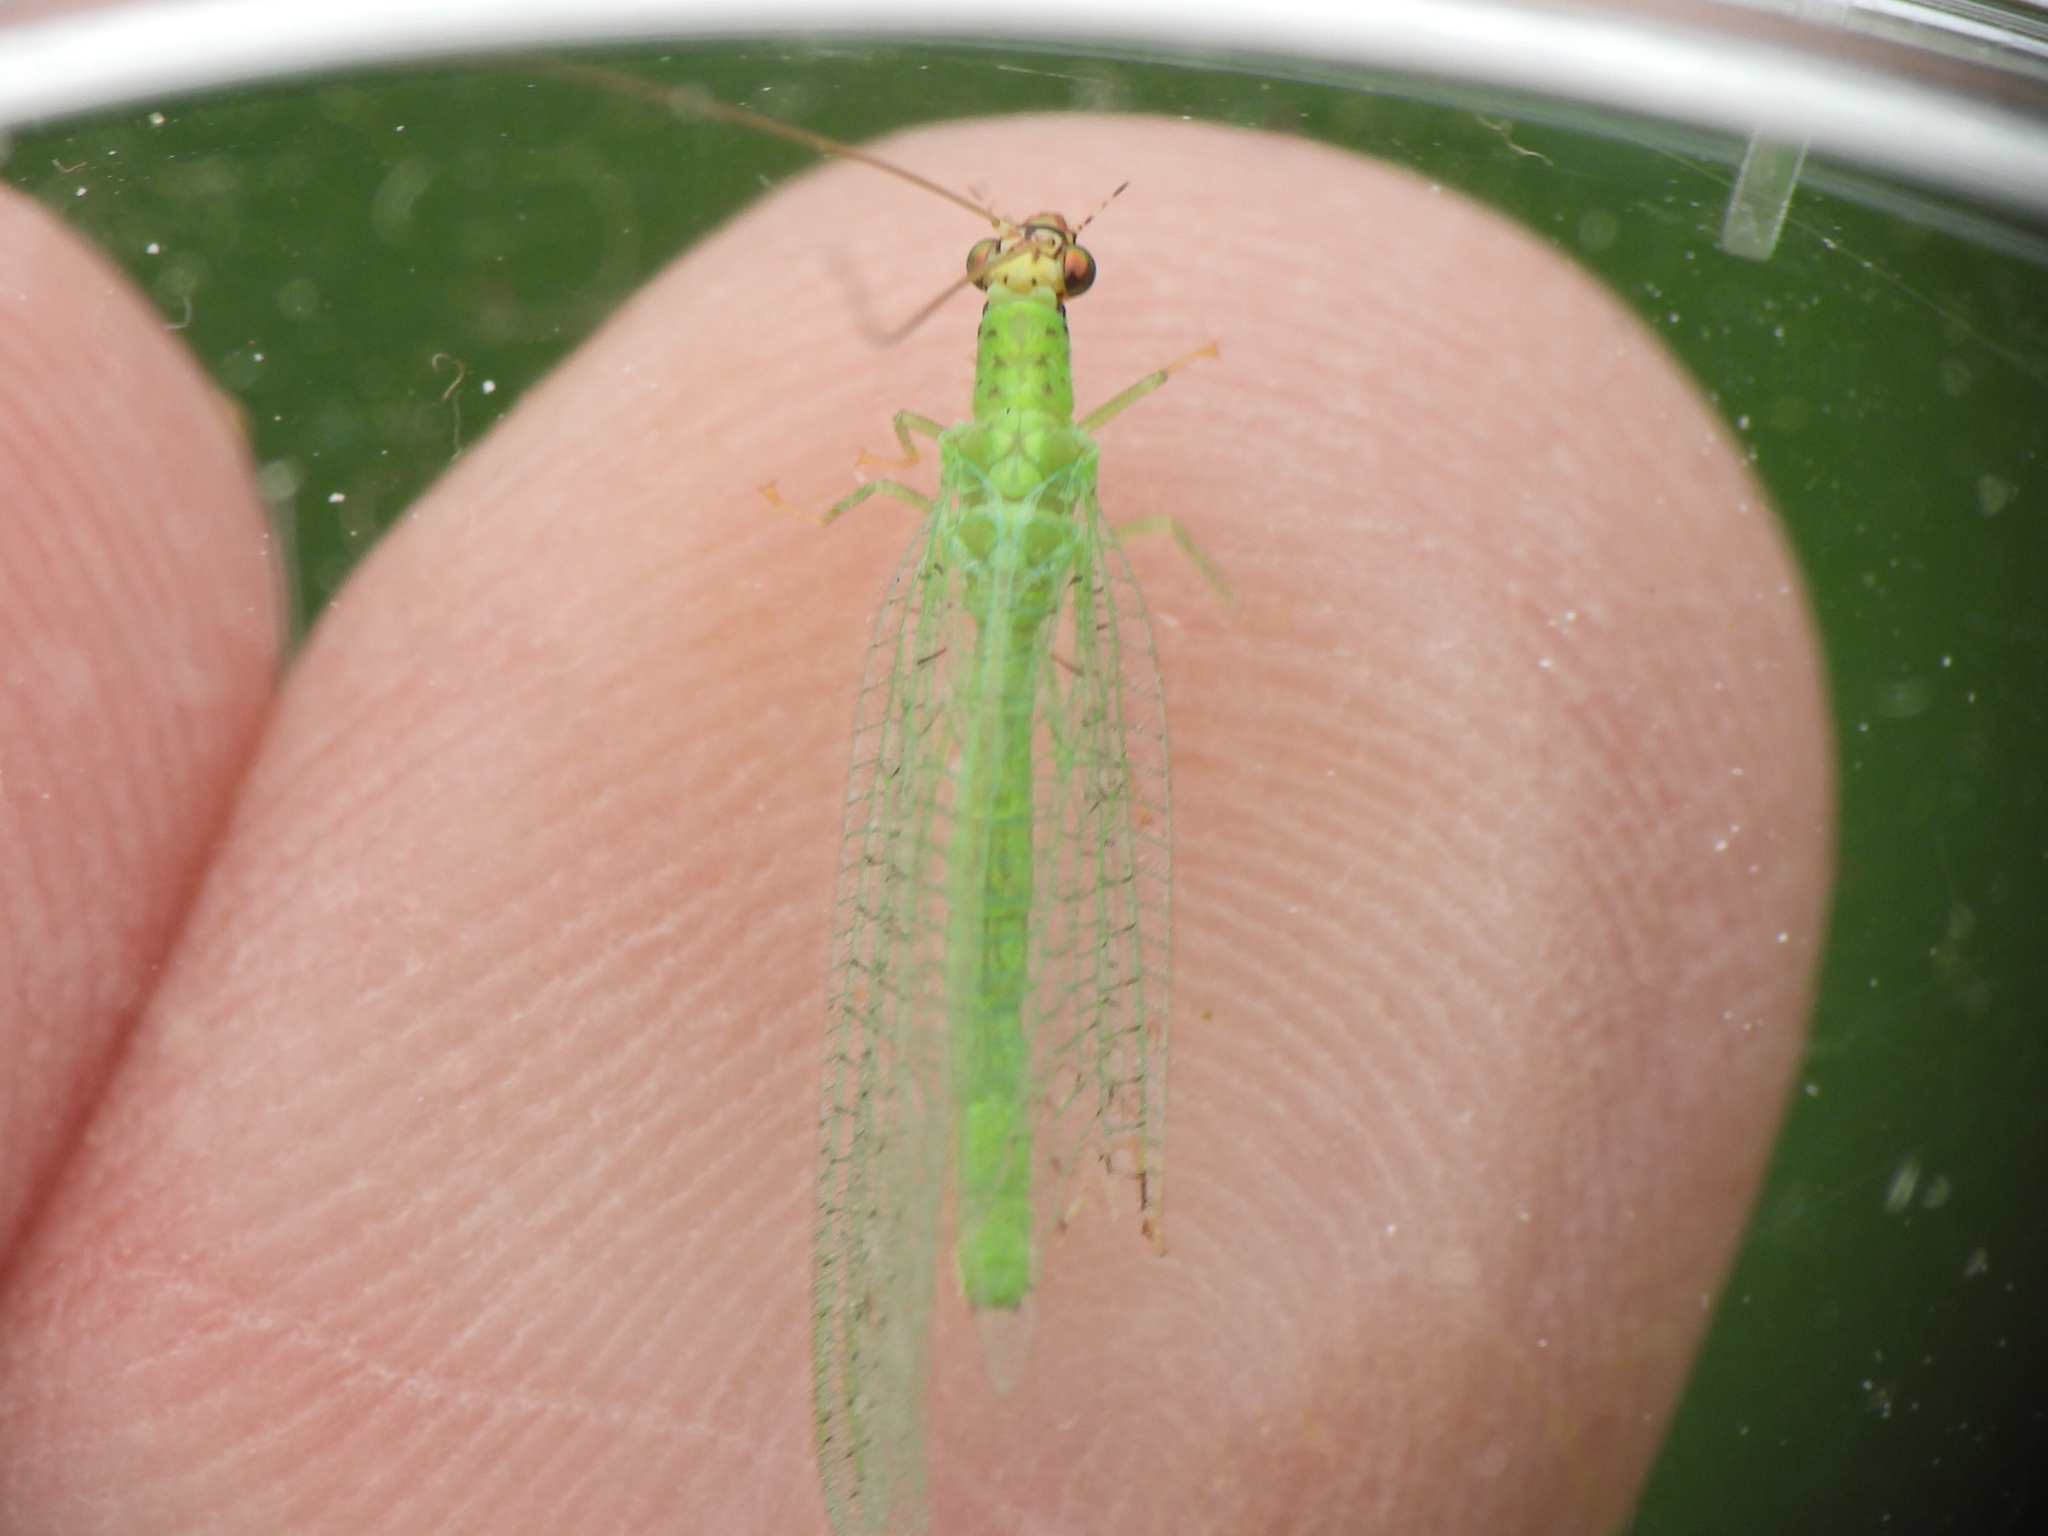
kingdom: Animalia
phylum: Arthropoda
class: Insecta
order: Neuroptera
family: Chrysopidae
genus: Chrysopa
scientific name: Chrysopa oculata
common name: Golden-eyed lacewing
